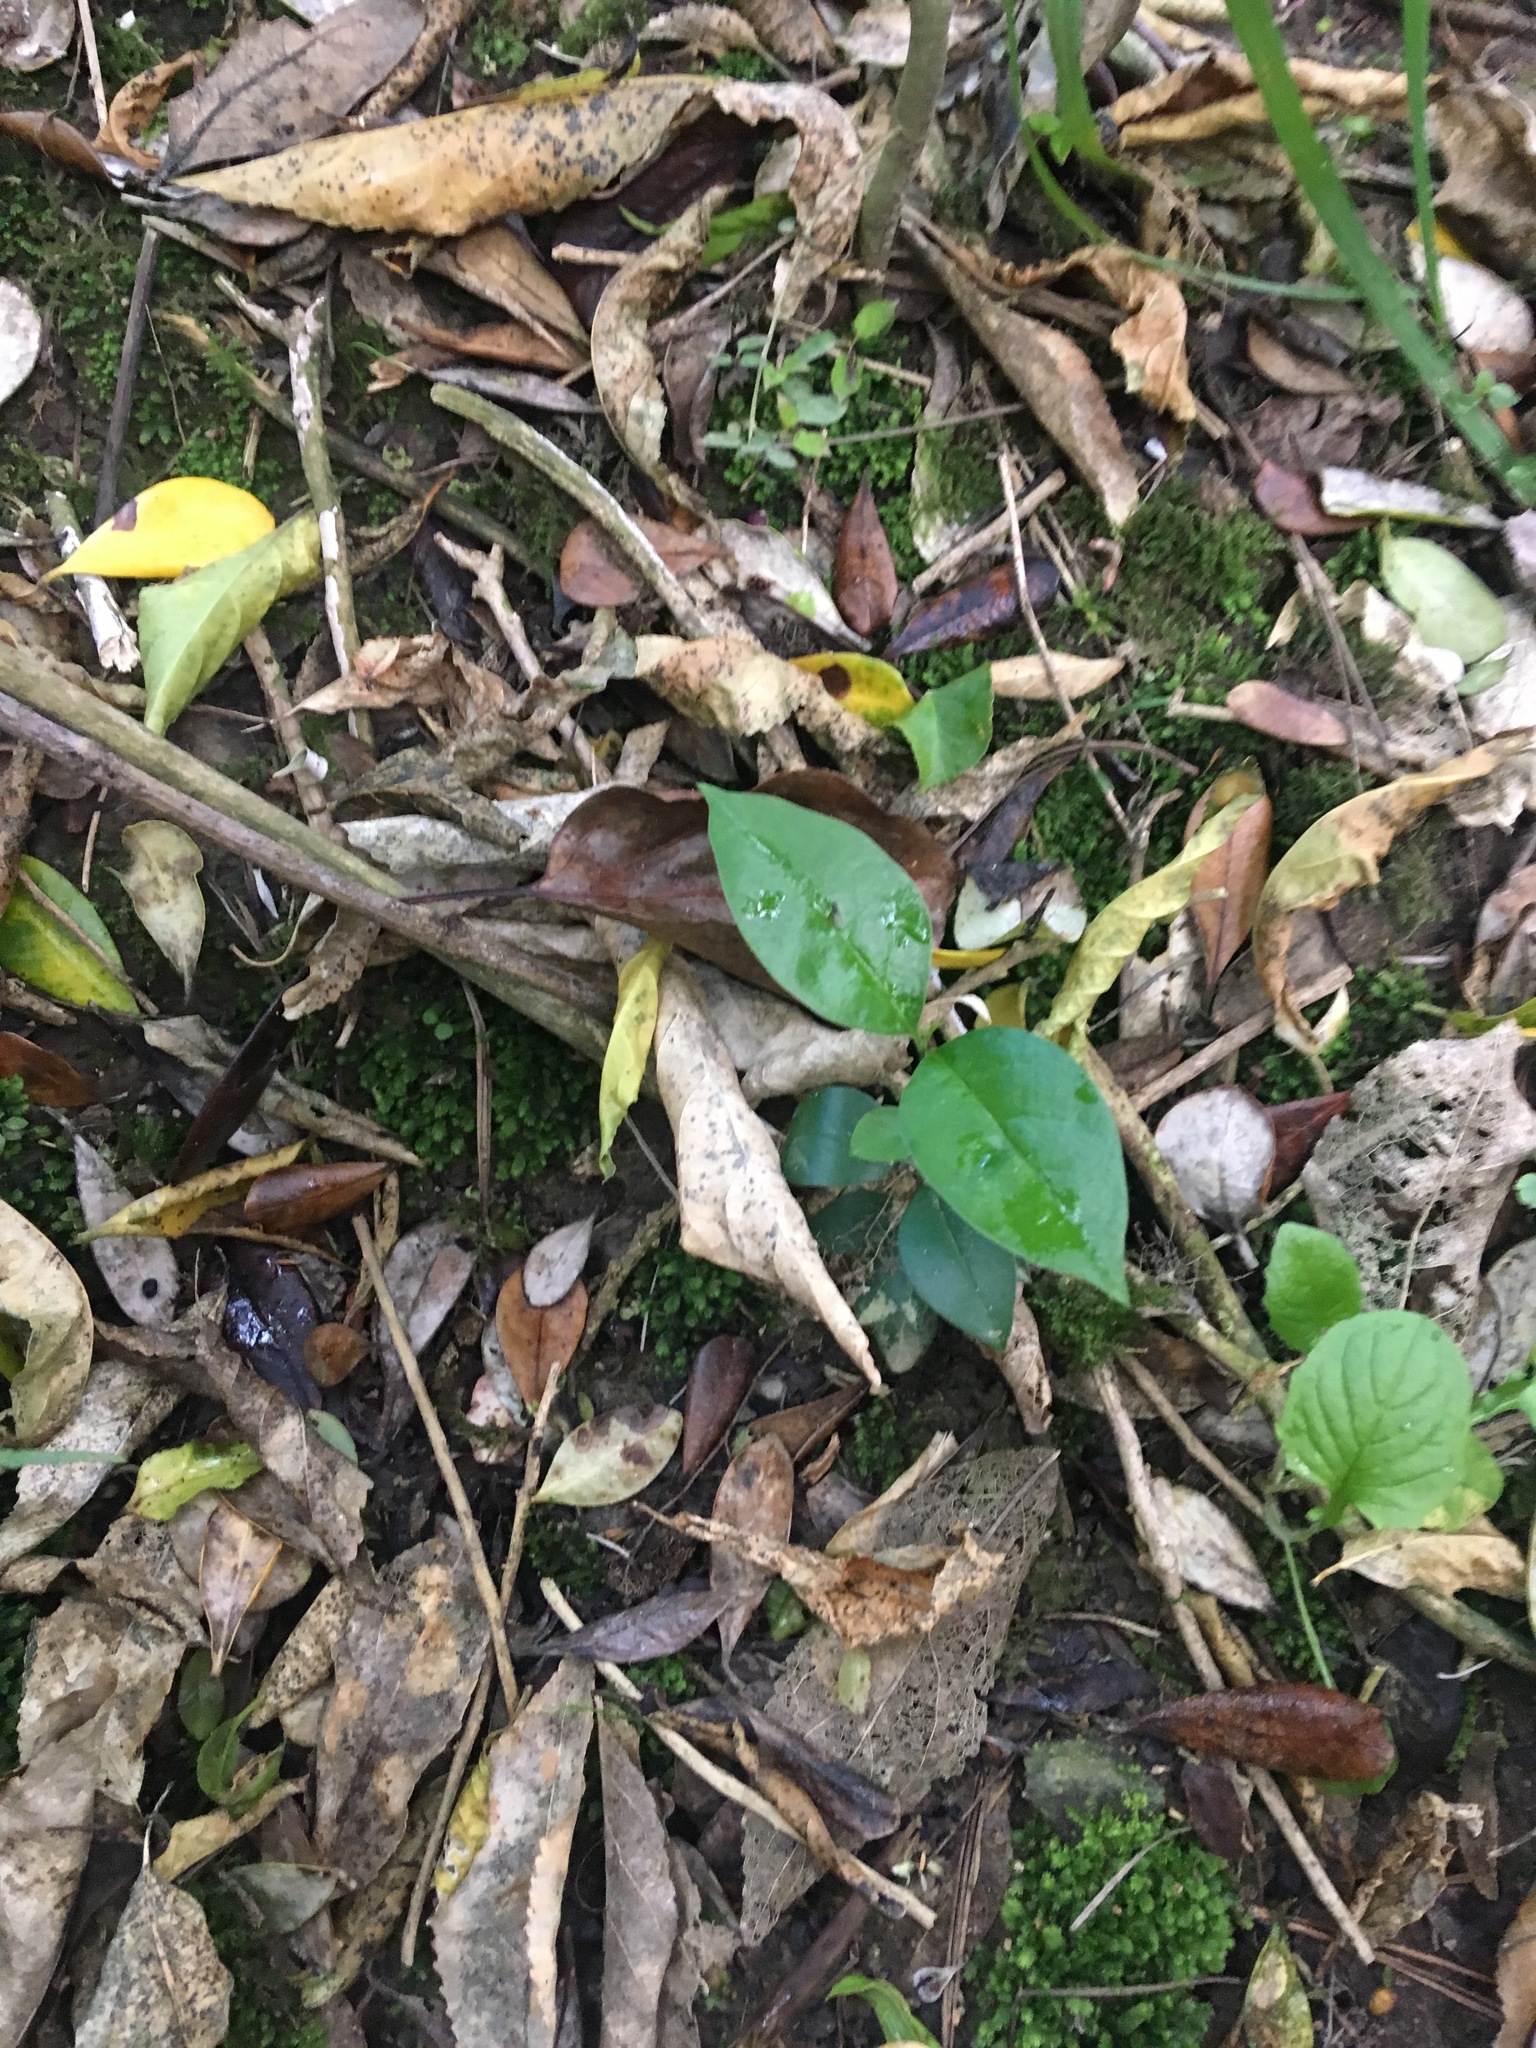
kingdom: Plantae
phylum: Tracheophyta
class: Magnoliopsida
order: Lamiales
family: Oleaceae
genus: Ligustrum
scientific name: Ligustrum lucidum
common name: Glossy privet
